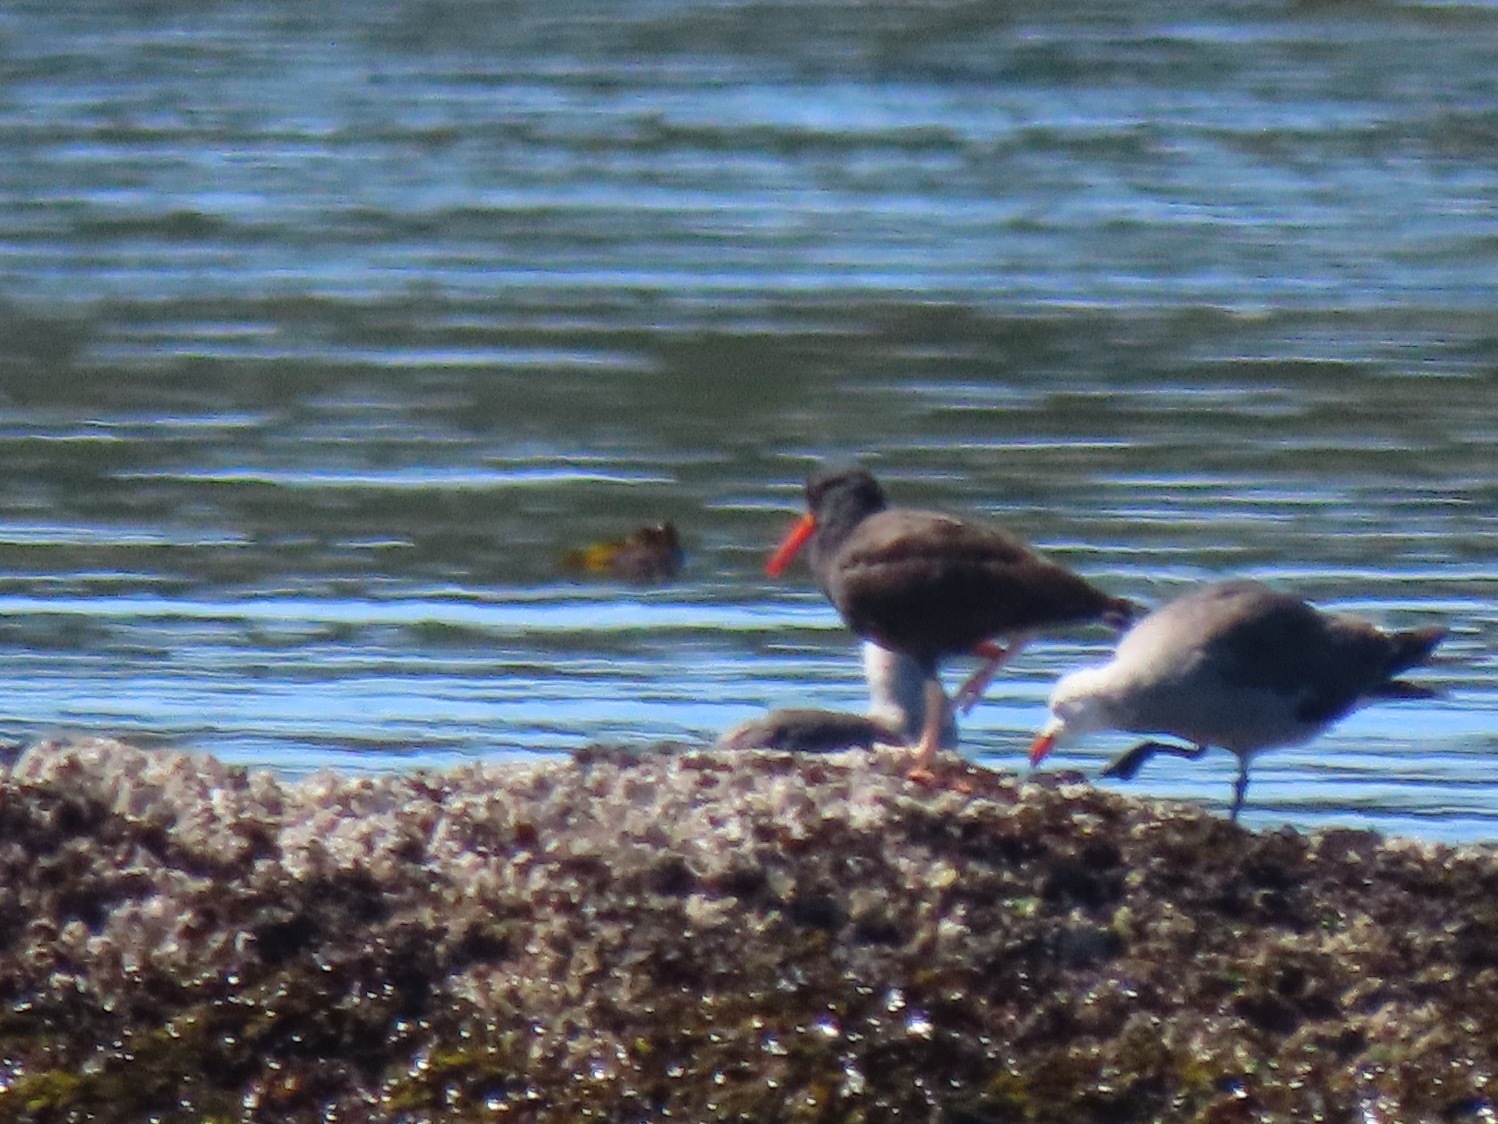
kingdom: Animalia
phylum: Chordata
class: Aves
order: Charadriiformes
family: Haematopodidae
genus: Haematopus
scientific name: Haematopus bachmani
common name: Black oystercatcher
